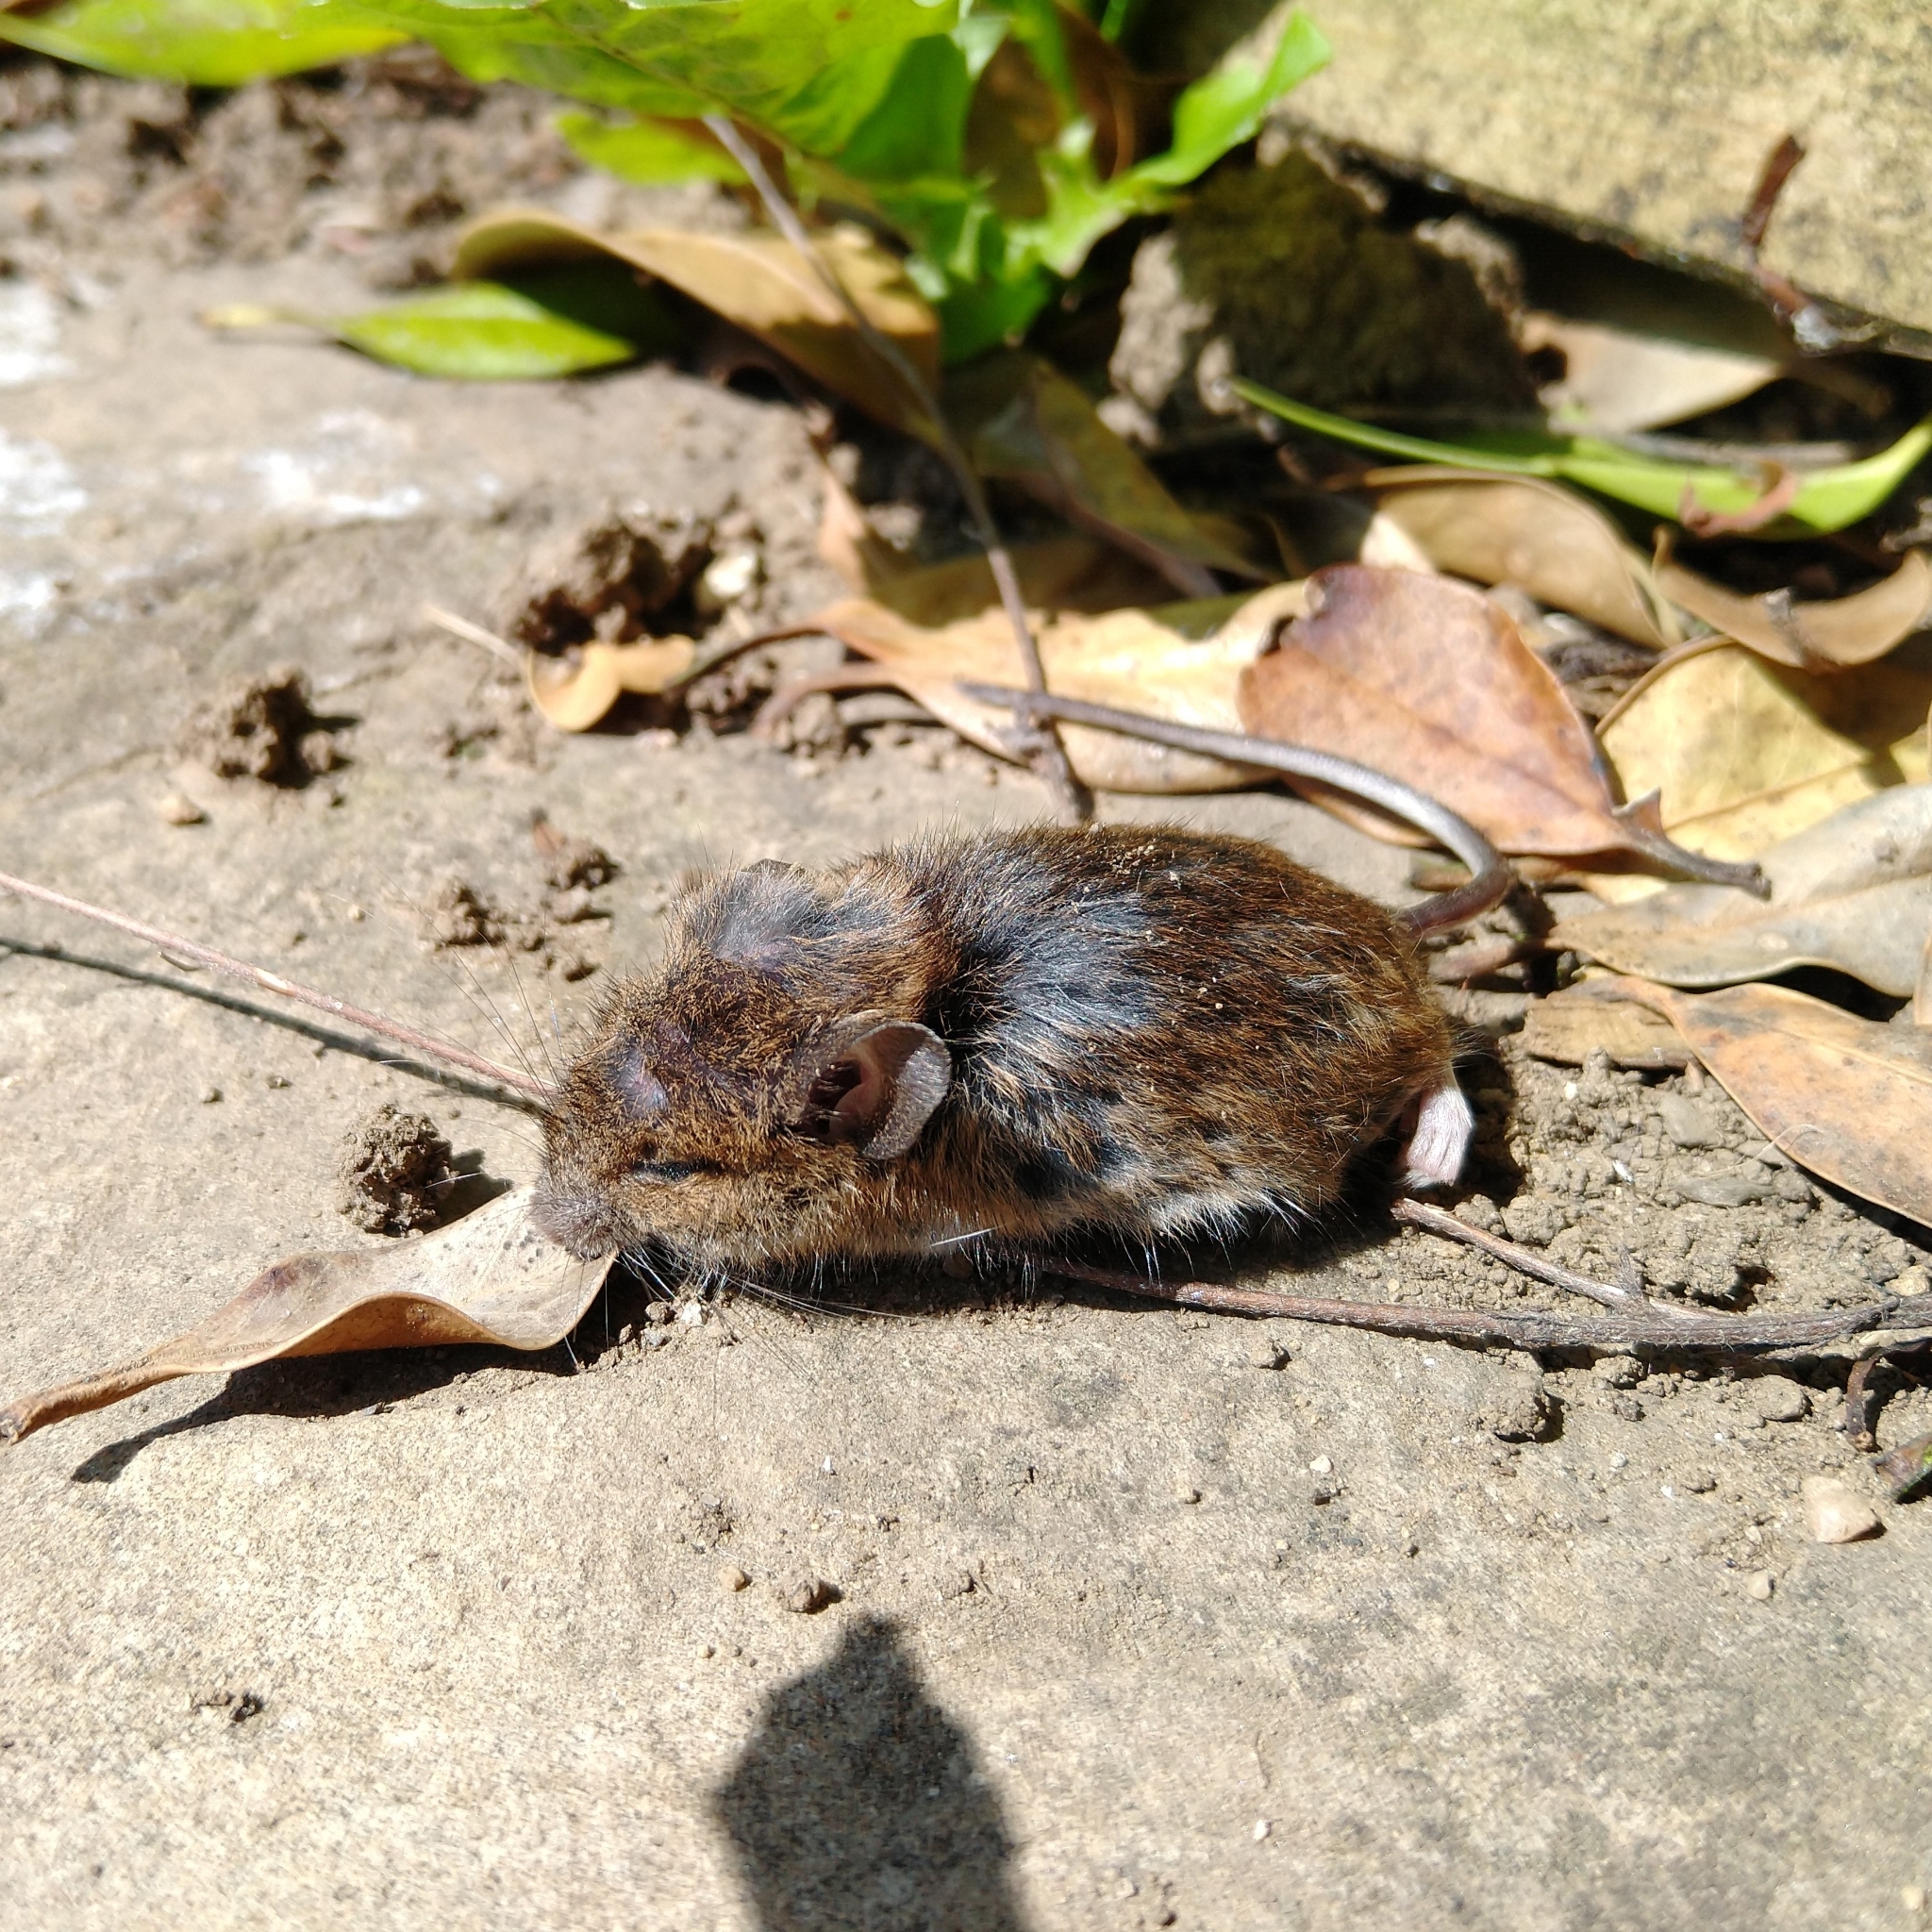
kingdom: Animalia
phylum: Chordata
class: Mammalia
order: Rodentia
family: Muridae
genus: Apodemus
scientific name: Apodemus sylvaticus
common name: Wood mouse
